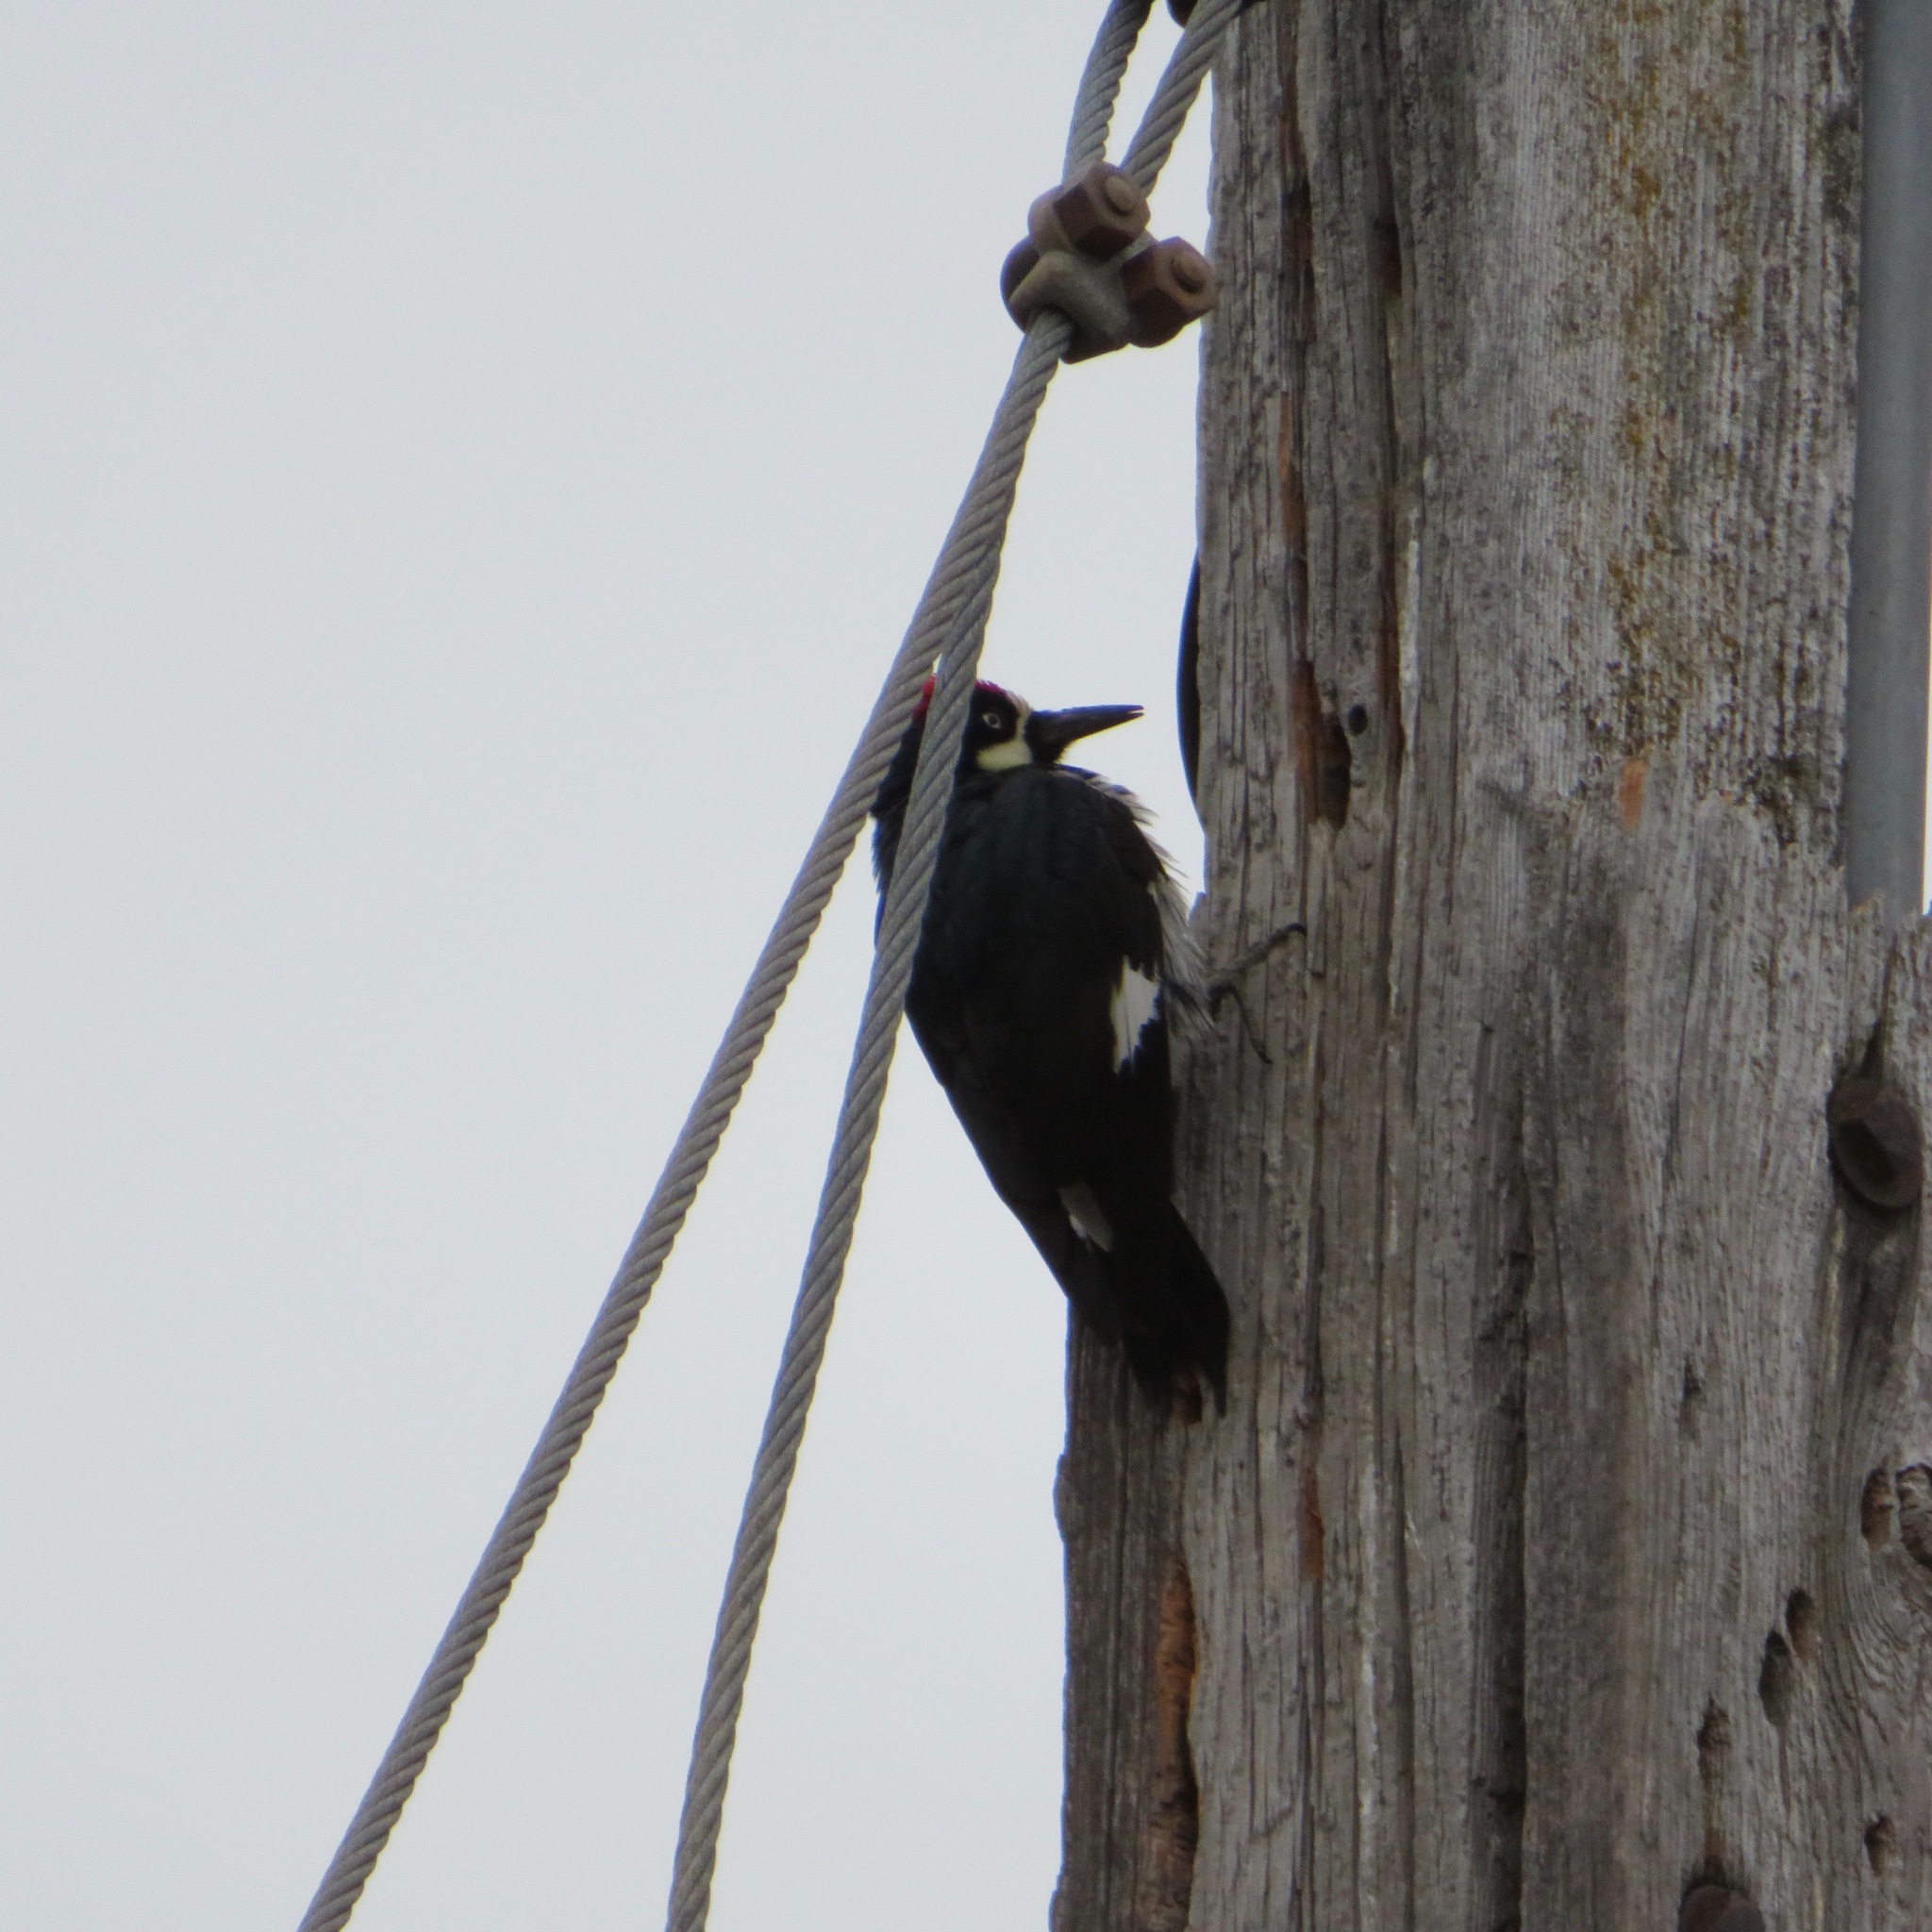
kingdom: Animalia
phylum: Chordata
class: Aves
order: Piciformes
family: Picidae
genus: Melanerpes
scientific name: Melanerpes formicivorus
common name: Acorn woodpecker
